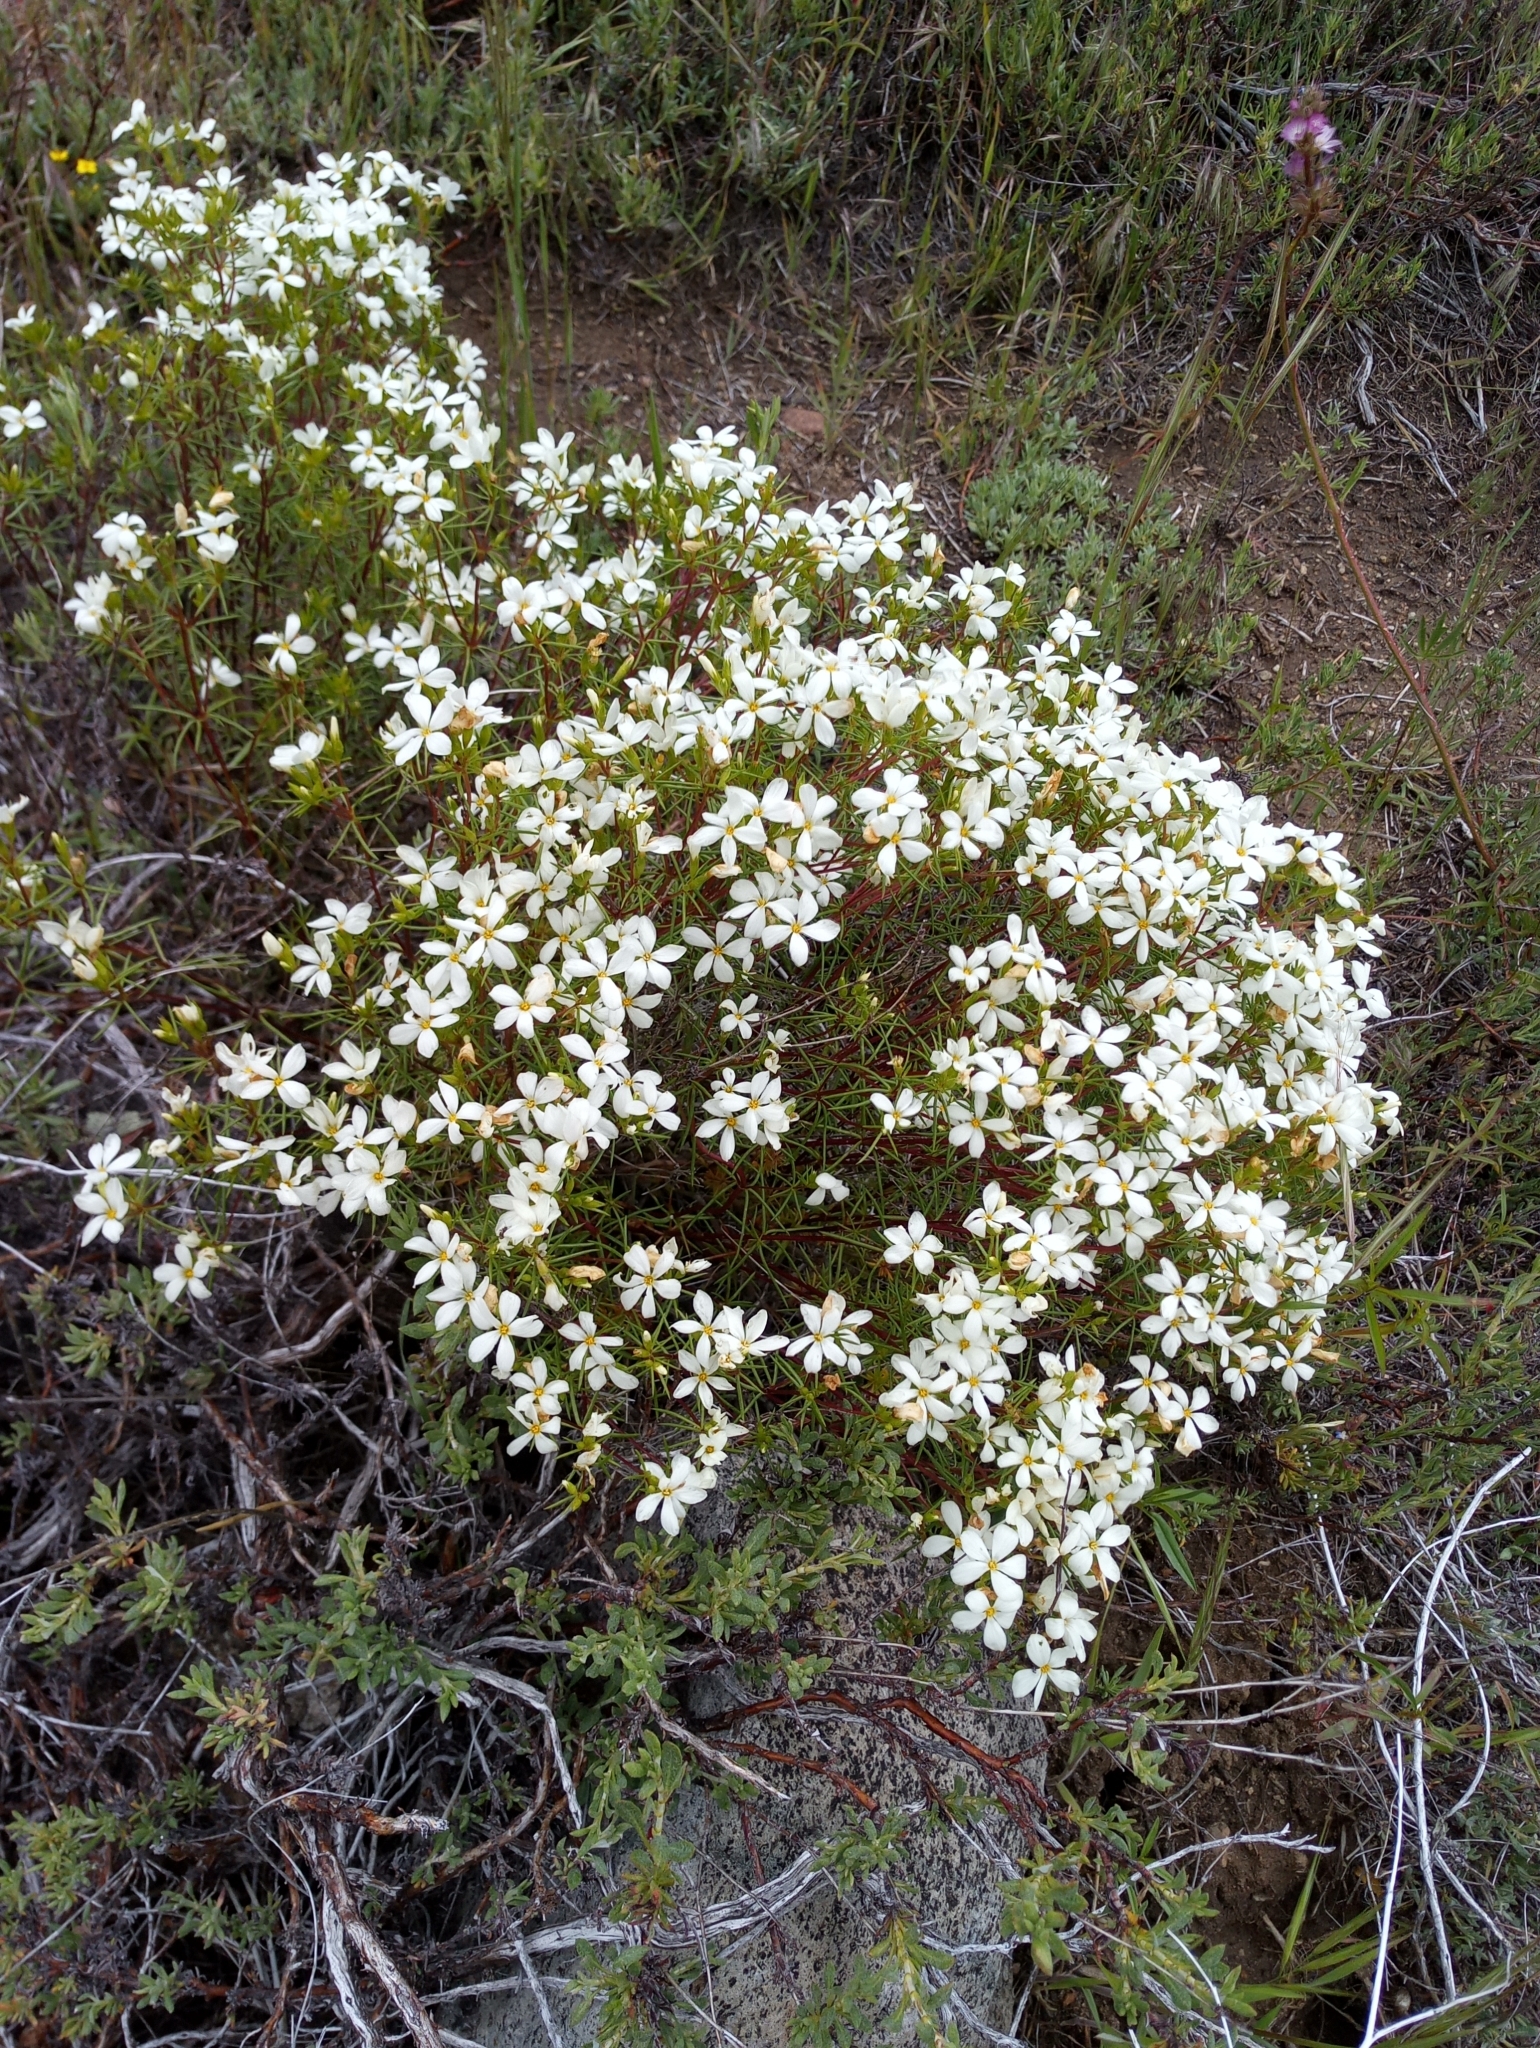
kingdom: Plantae
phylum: Tracheophyta
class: Magnoliopsida
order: Ericales
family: Polemoniaceae
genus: Leptosiphon
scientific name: Leptosiphon floribundum
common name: Many-flower linanthus
